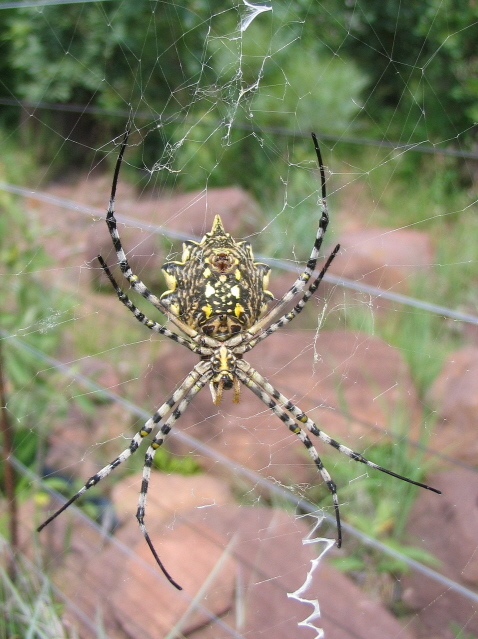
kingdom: Animalia
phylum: Arthropoda
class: Arachnida
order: Araneae
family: Araneidae
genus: Argiope
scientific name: Argiope australis
